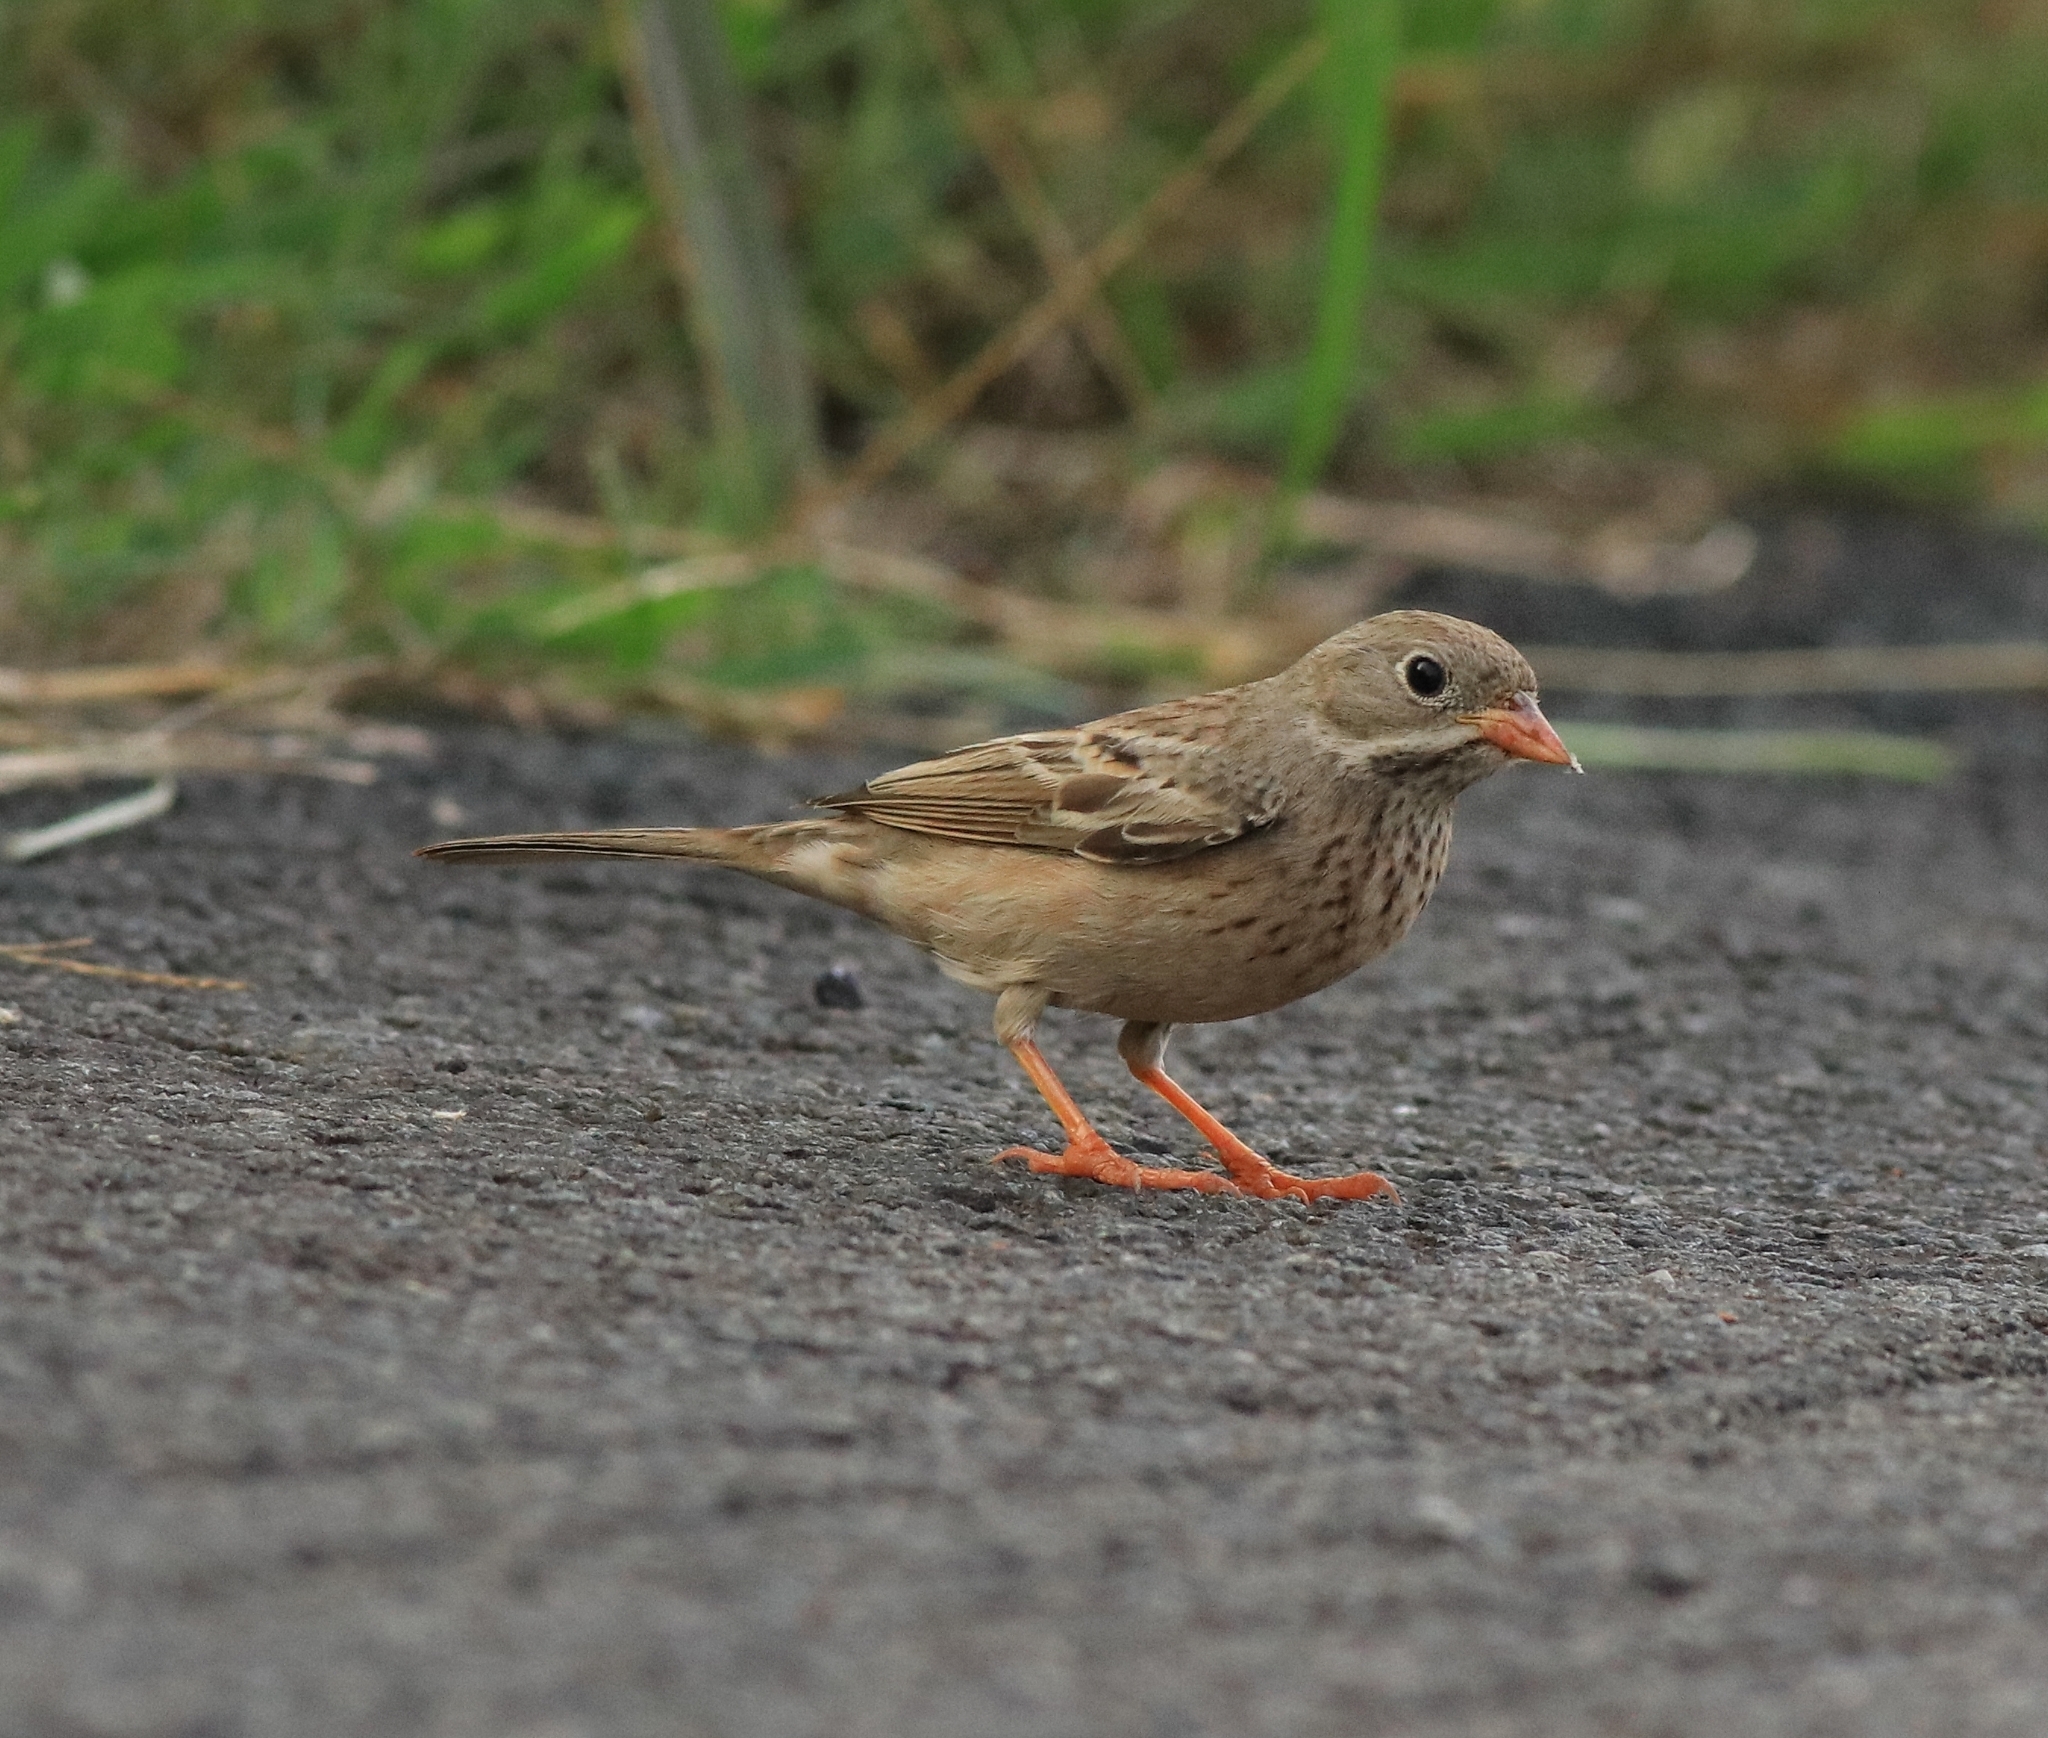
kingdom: Animalia
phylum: Chordata
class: Aves
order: Passeriformes
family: Emberizidae
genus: Emberiza
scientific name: Emberiza buchanani
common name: Grey-necked bunting
